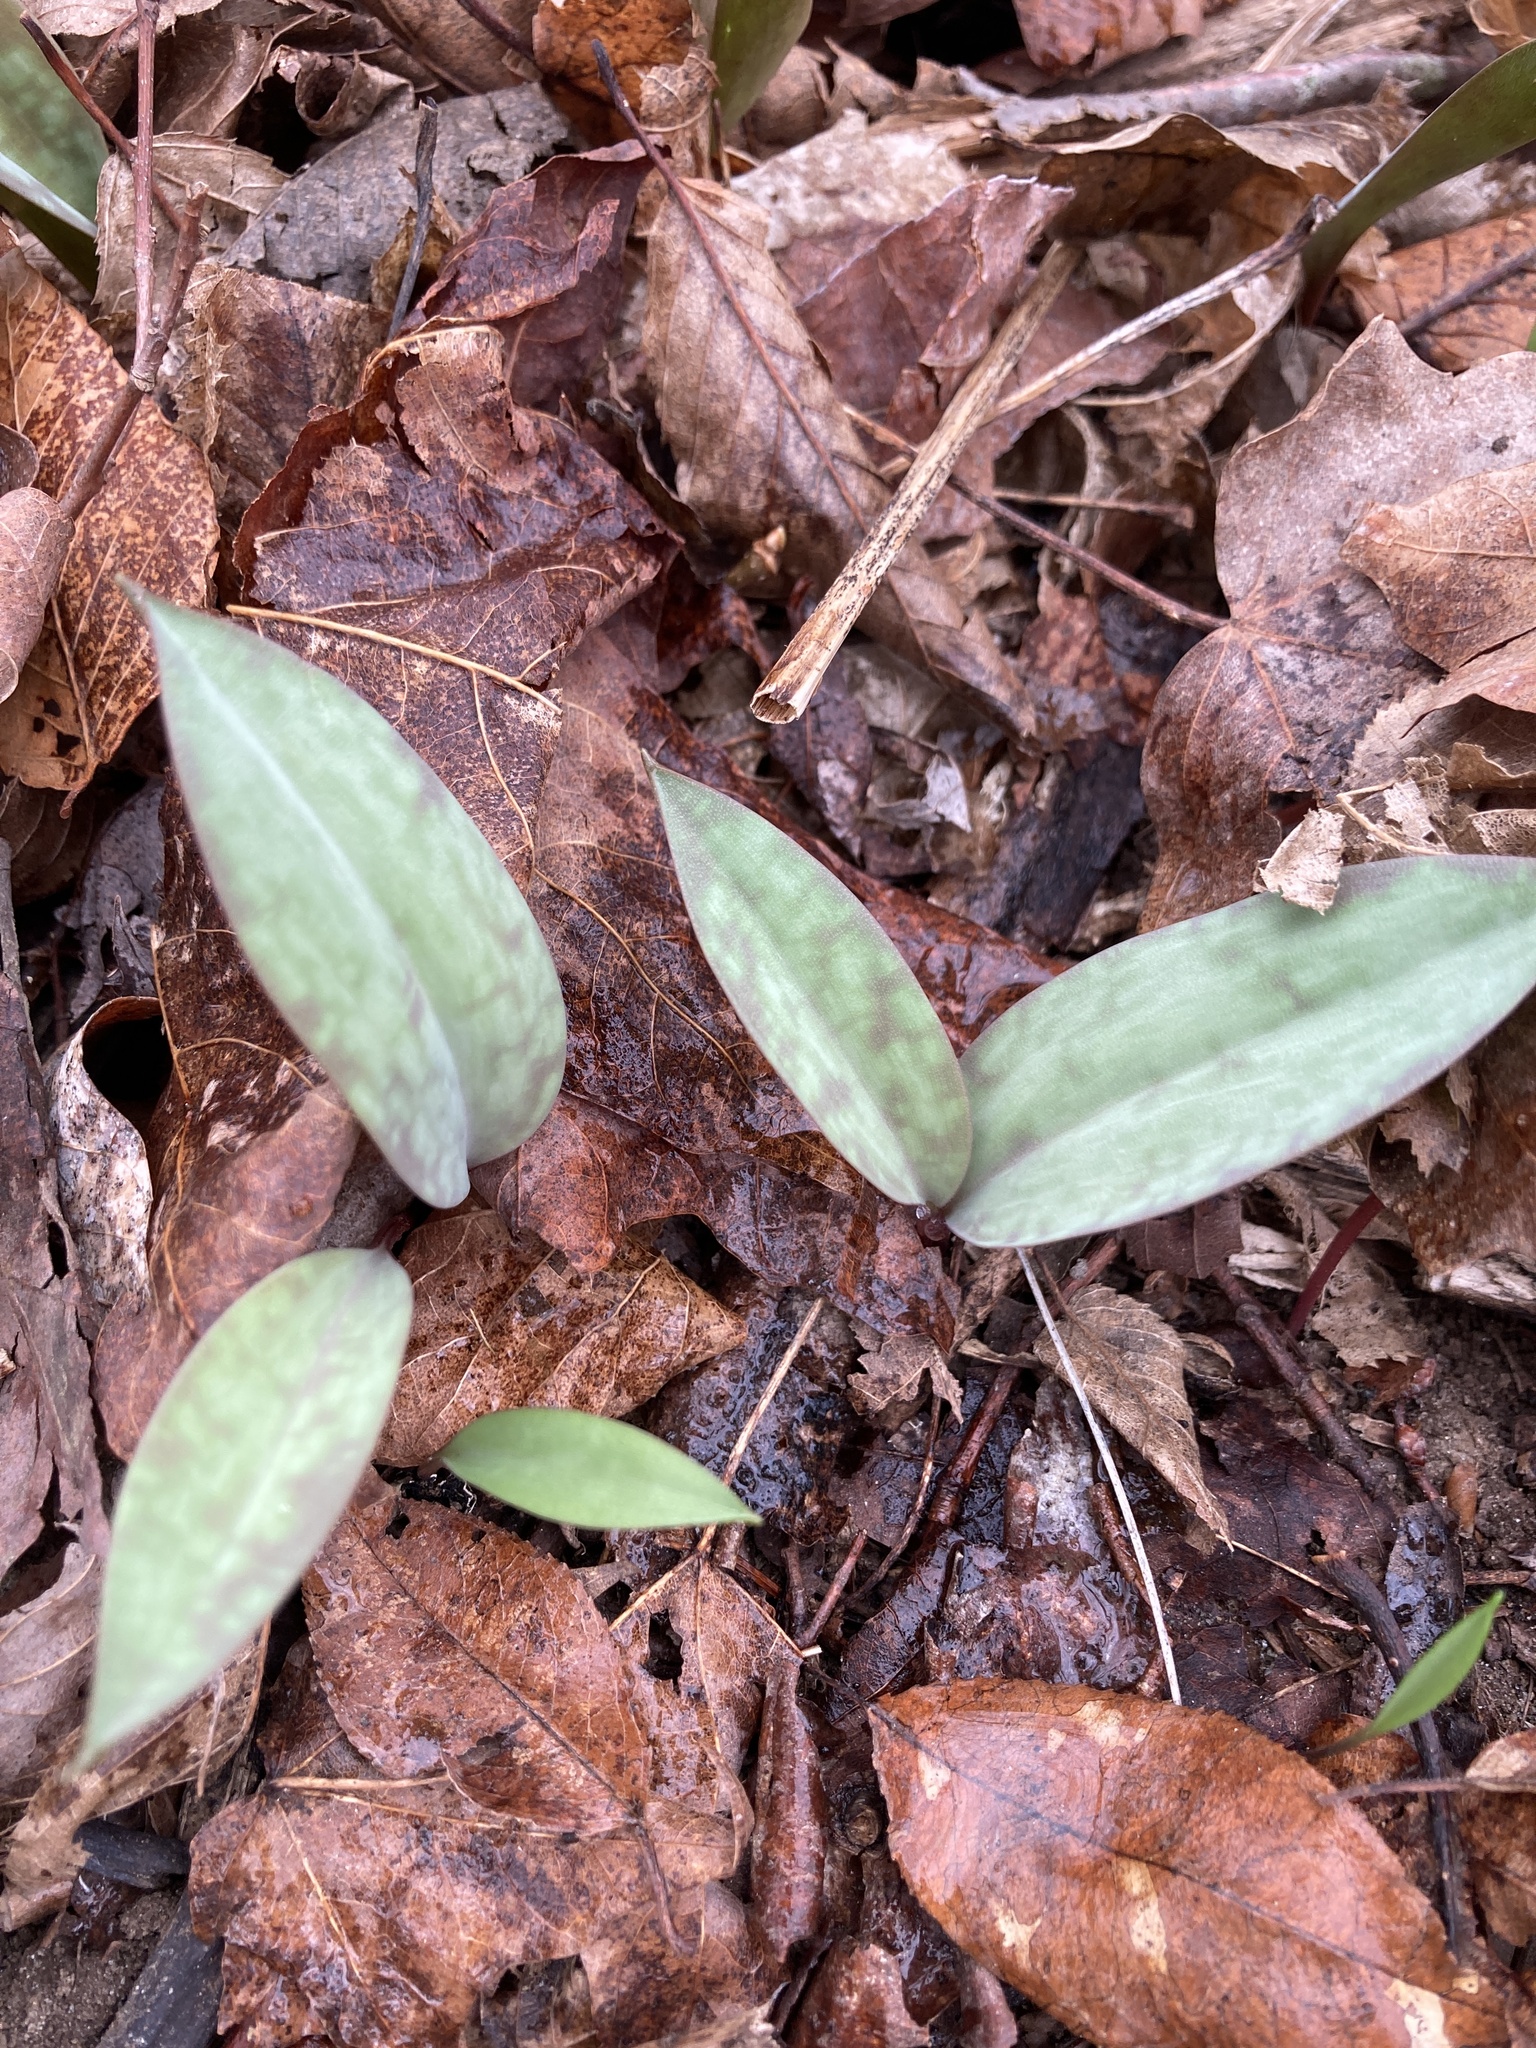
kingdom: Plantae
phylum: Tracheophyta
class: Liliopsida
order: Liliales
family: Liliaceae
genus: Erythronium
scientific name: Erythronium americanum
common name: Yellow adder's-tongue
